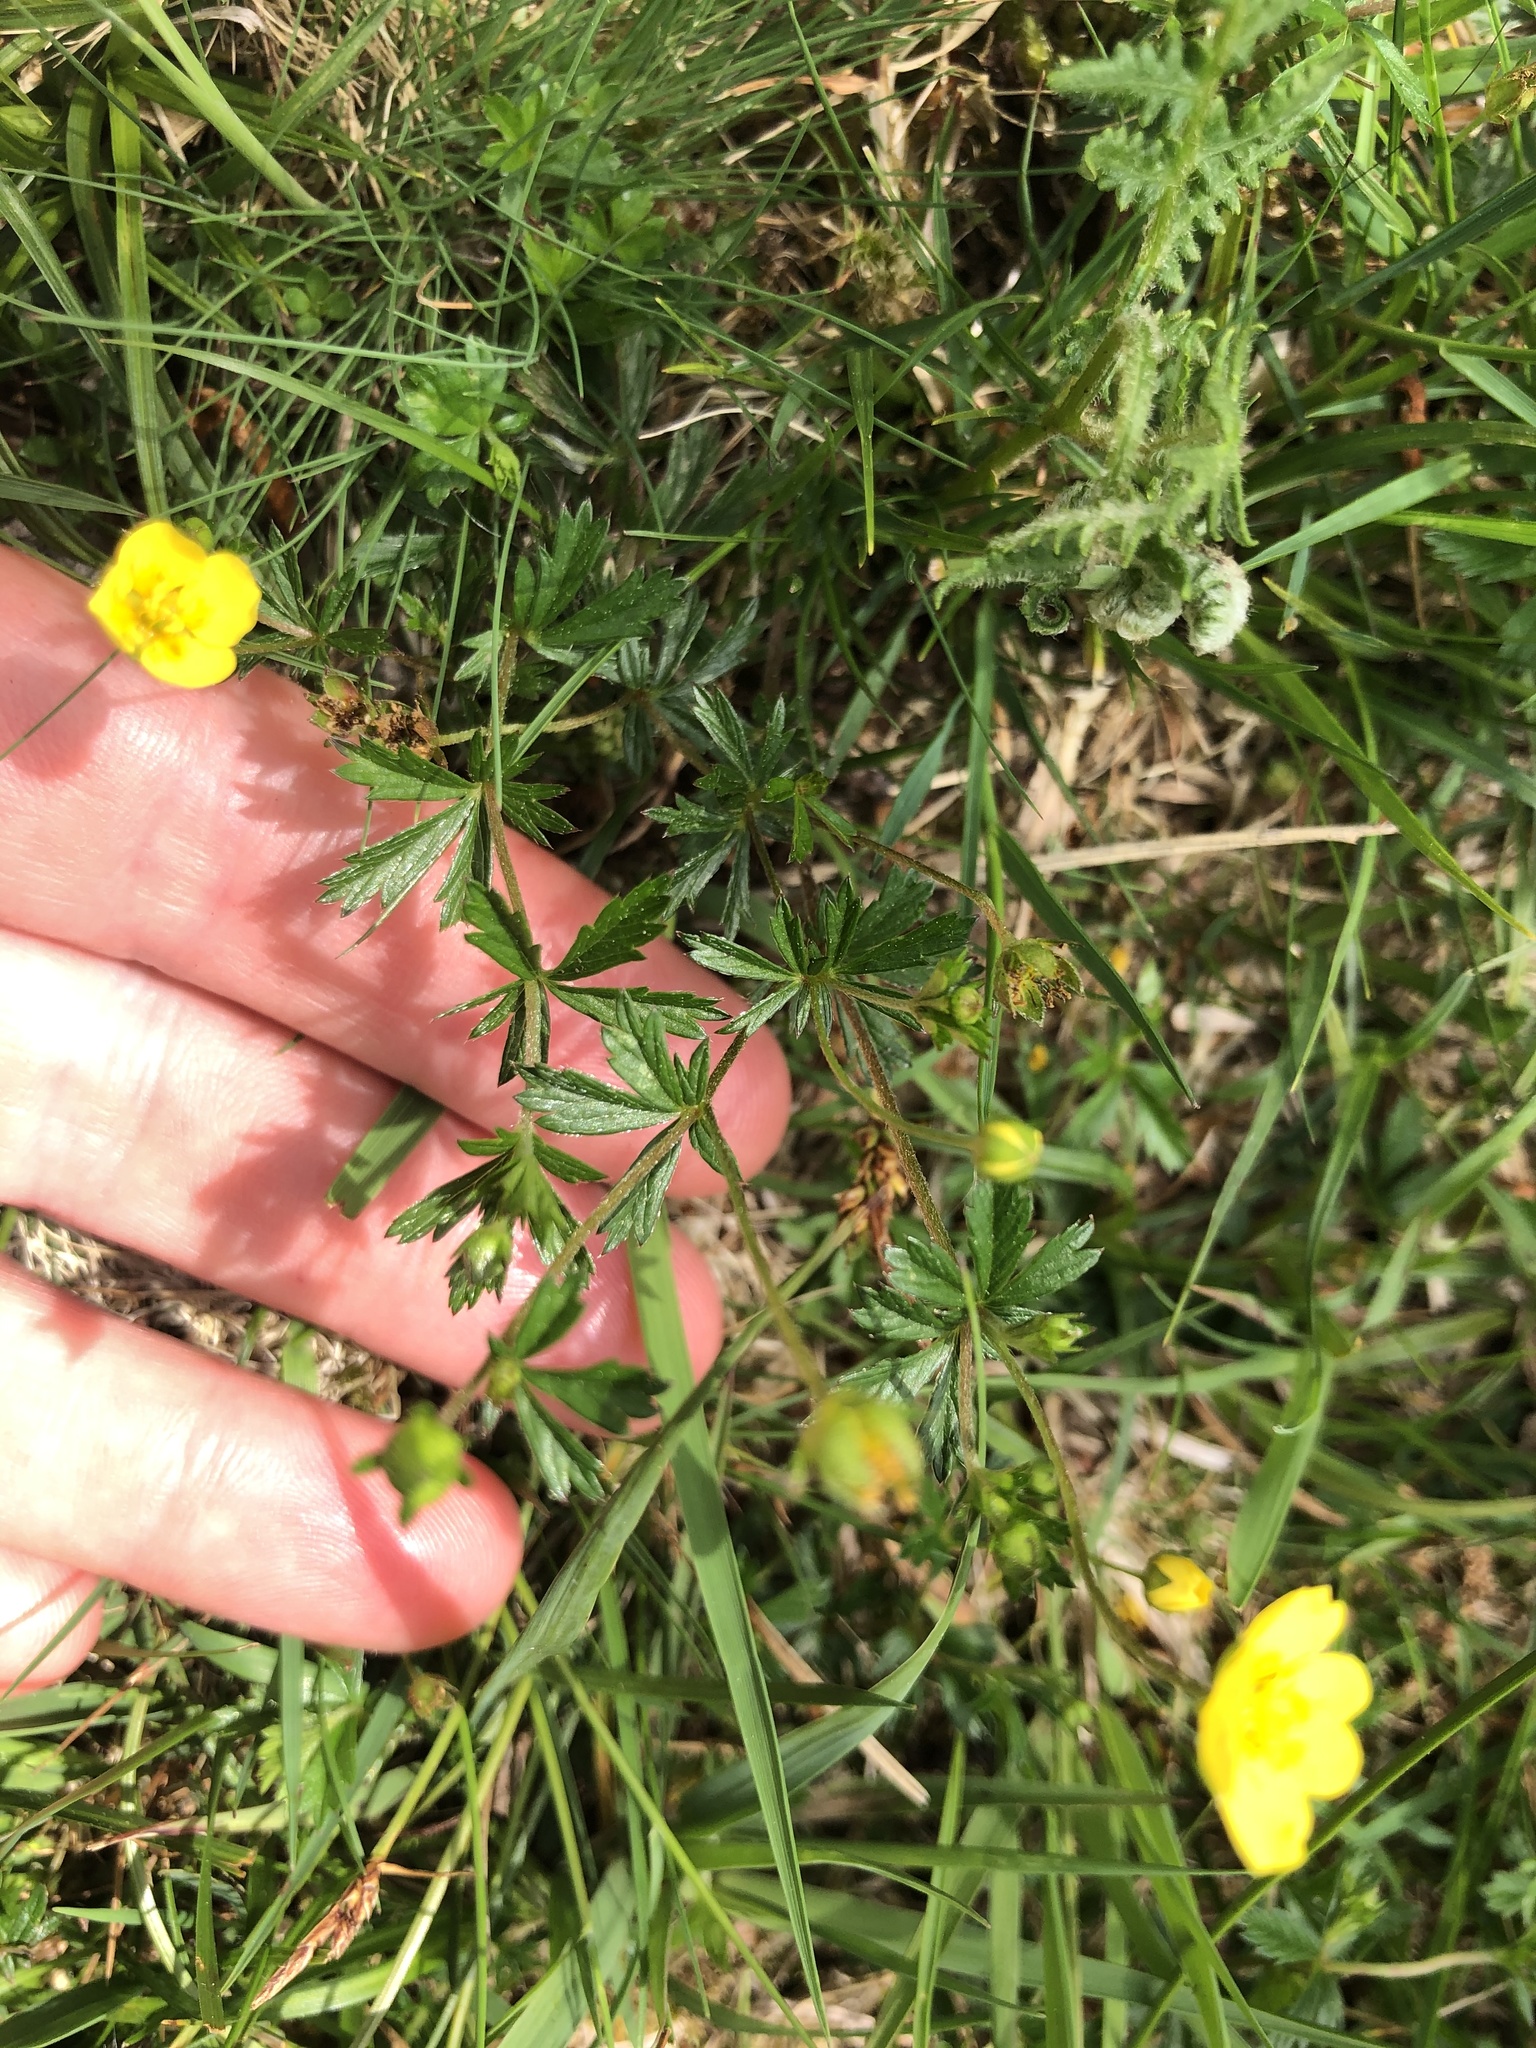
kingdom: Plantae
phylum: Tracheophyta
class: Magnoliopsida
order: Rosales
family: Rosaceae
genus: Potentilla
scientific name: Potentilla erecta
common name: Tormentil
